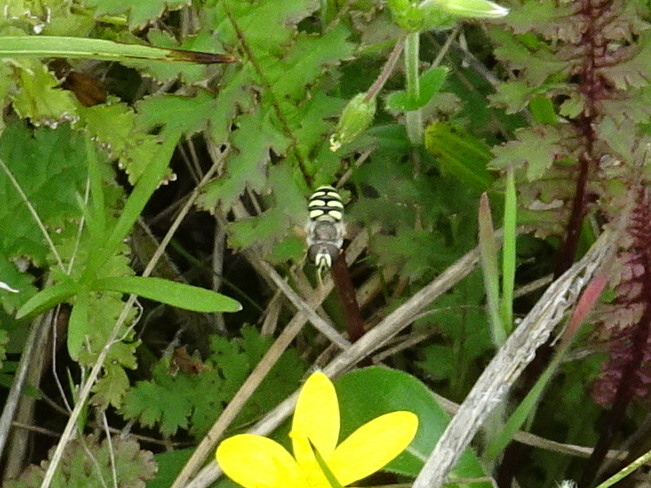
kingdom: Animalia
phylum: Arthropoda
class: Insecta
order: Diptera
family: Syrphidae
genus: Eupeodes
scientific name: Eupeodes volucris
